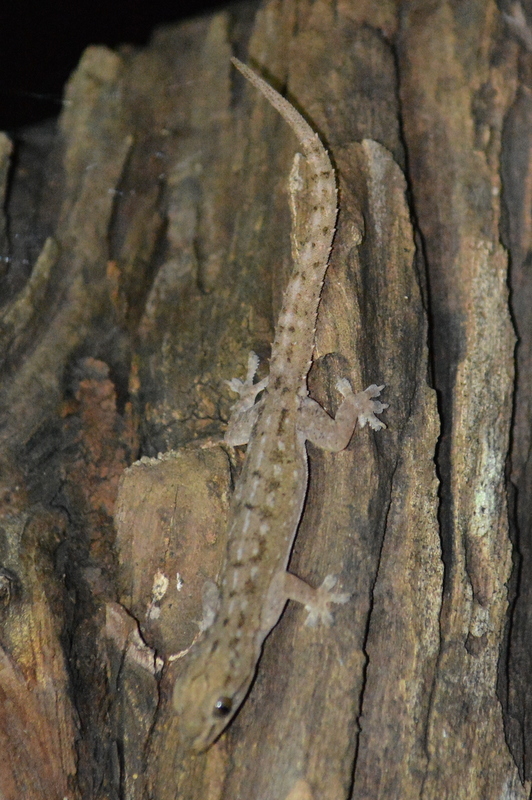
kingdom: Animalia
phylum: Chordata
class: Squamata
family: Gekkonidae
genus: Hemidactylus
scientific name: Hemidactylus frenatus
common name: Common house gecko
